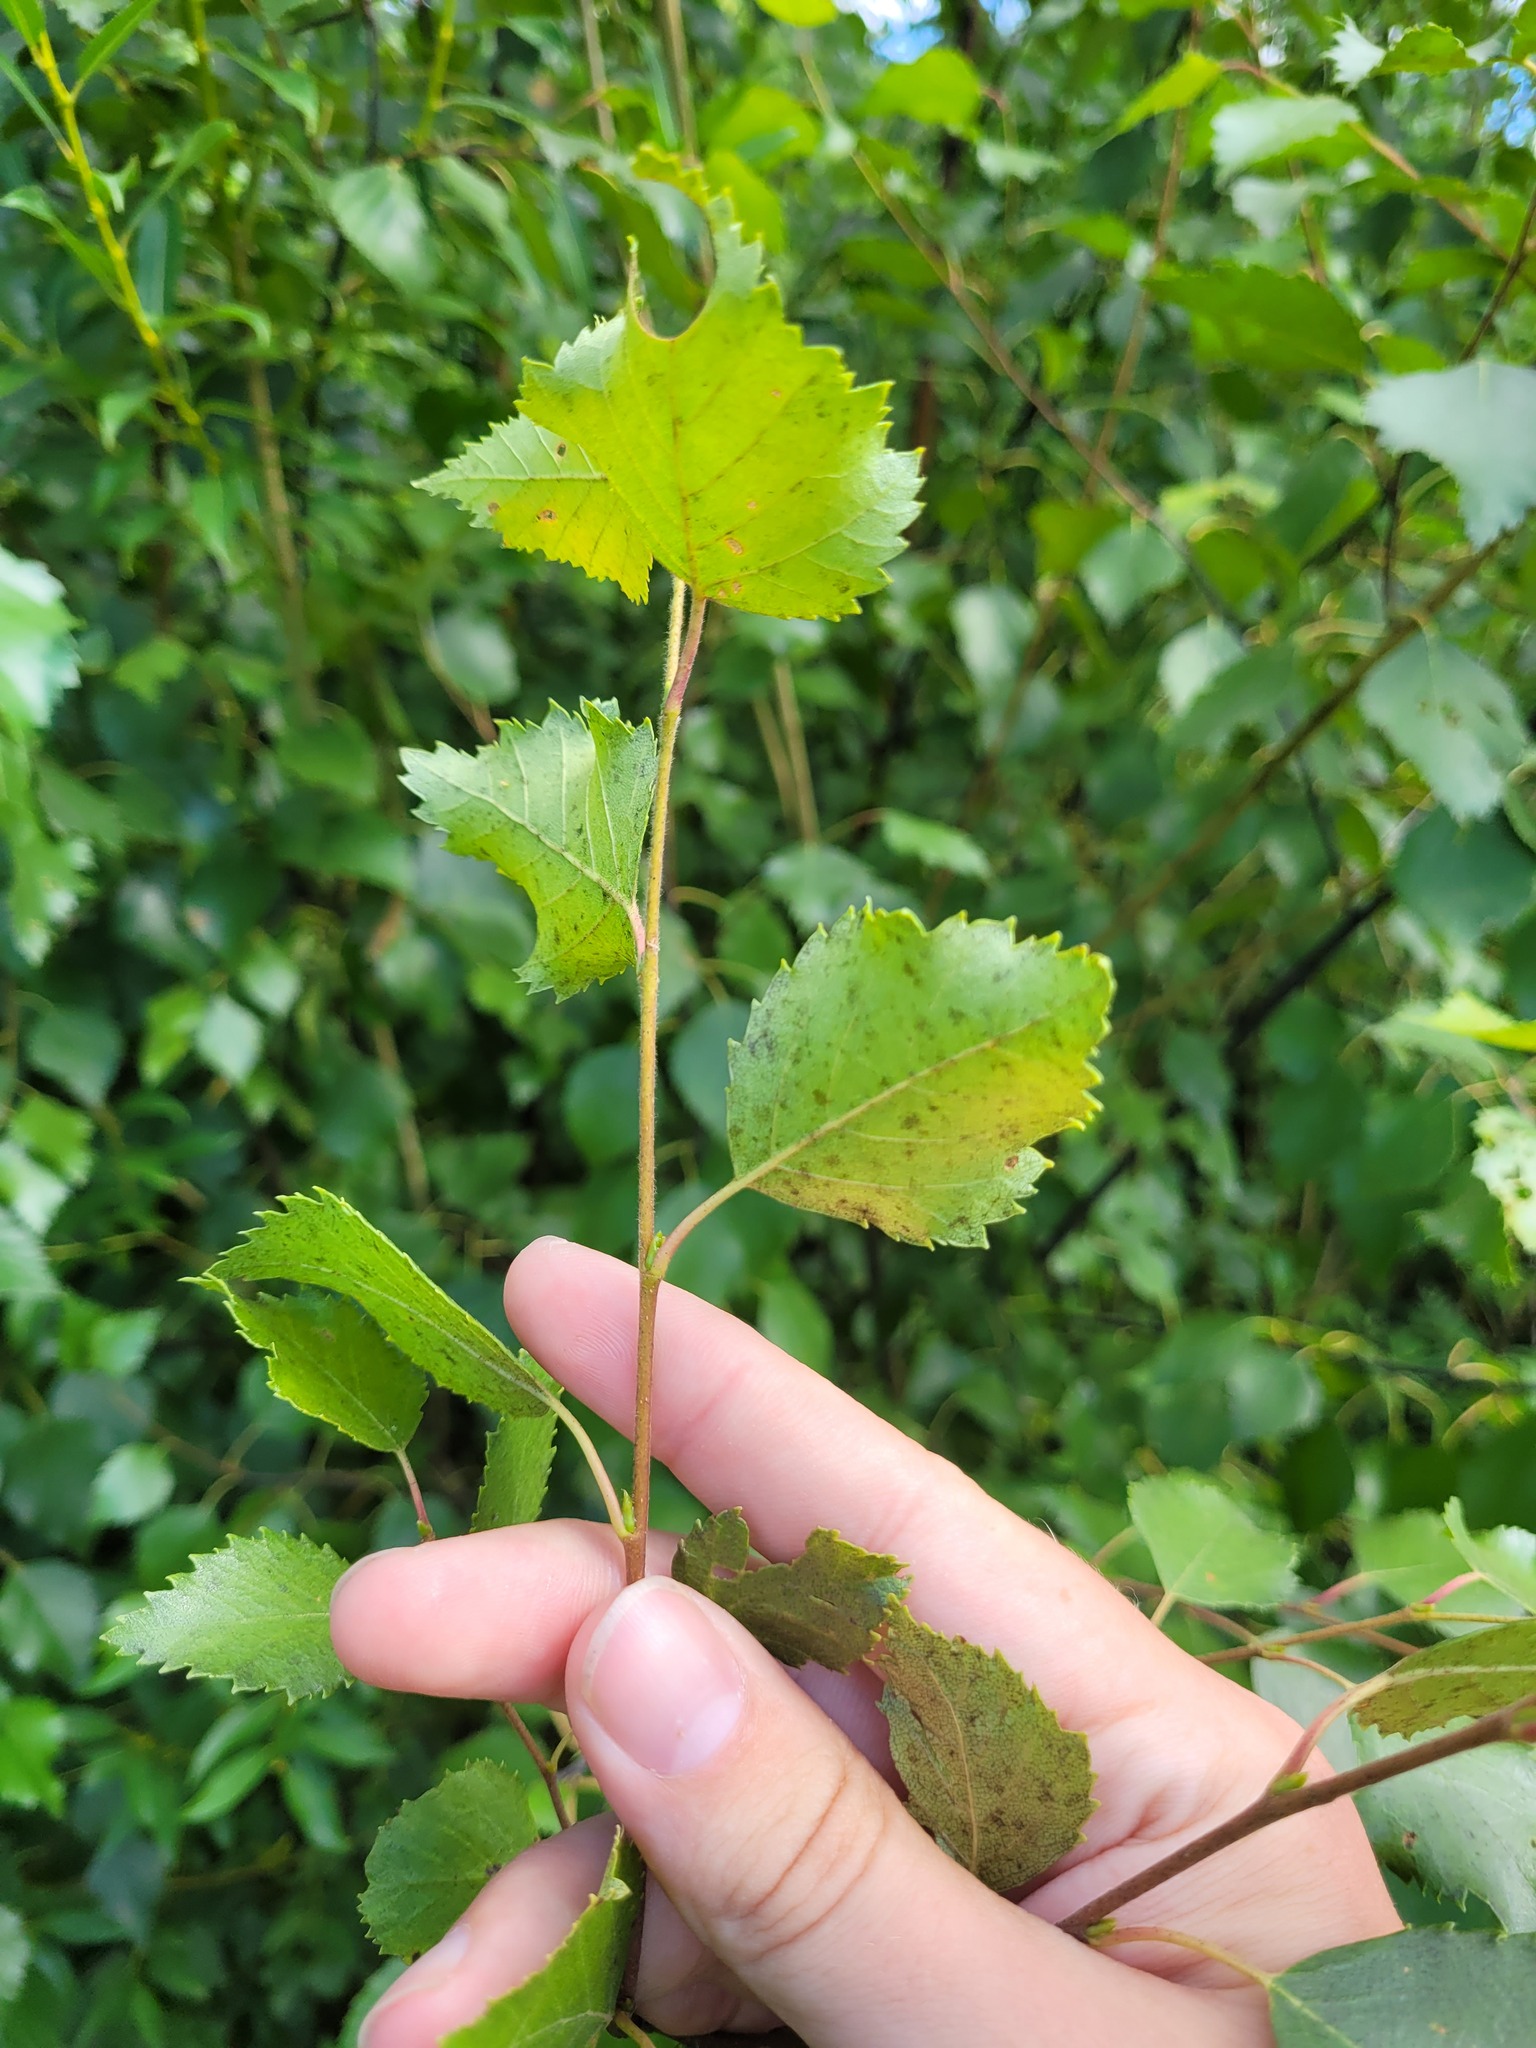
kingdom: Plantae
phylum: Tracheophyta
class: Magnoliopsida
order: Fagales
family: Betulaceae
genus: Betula
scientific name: Betula pubescens
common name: Downy birch
